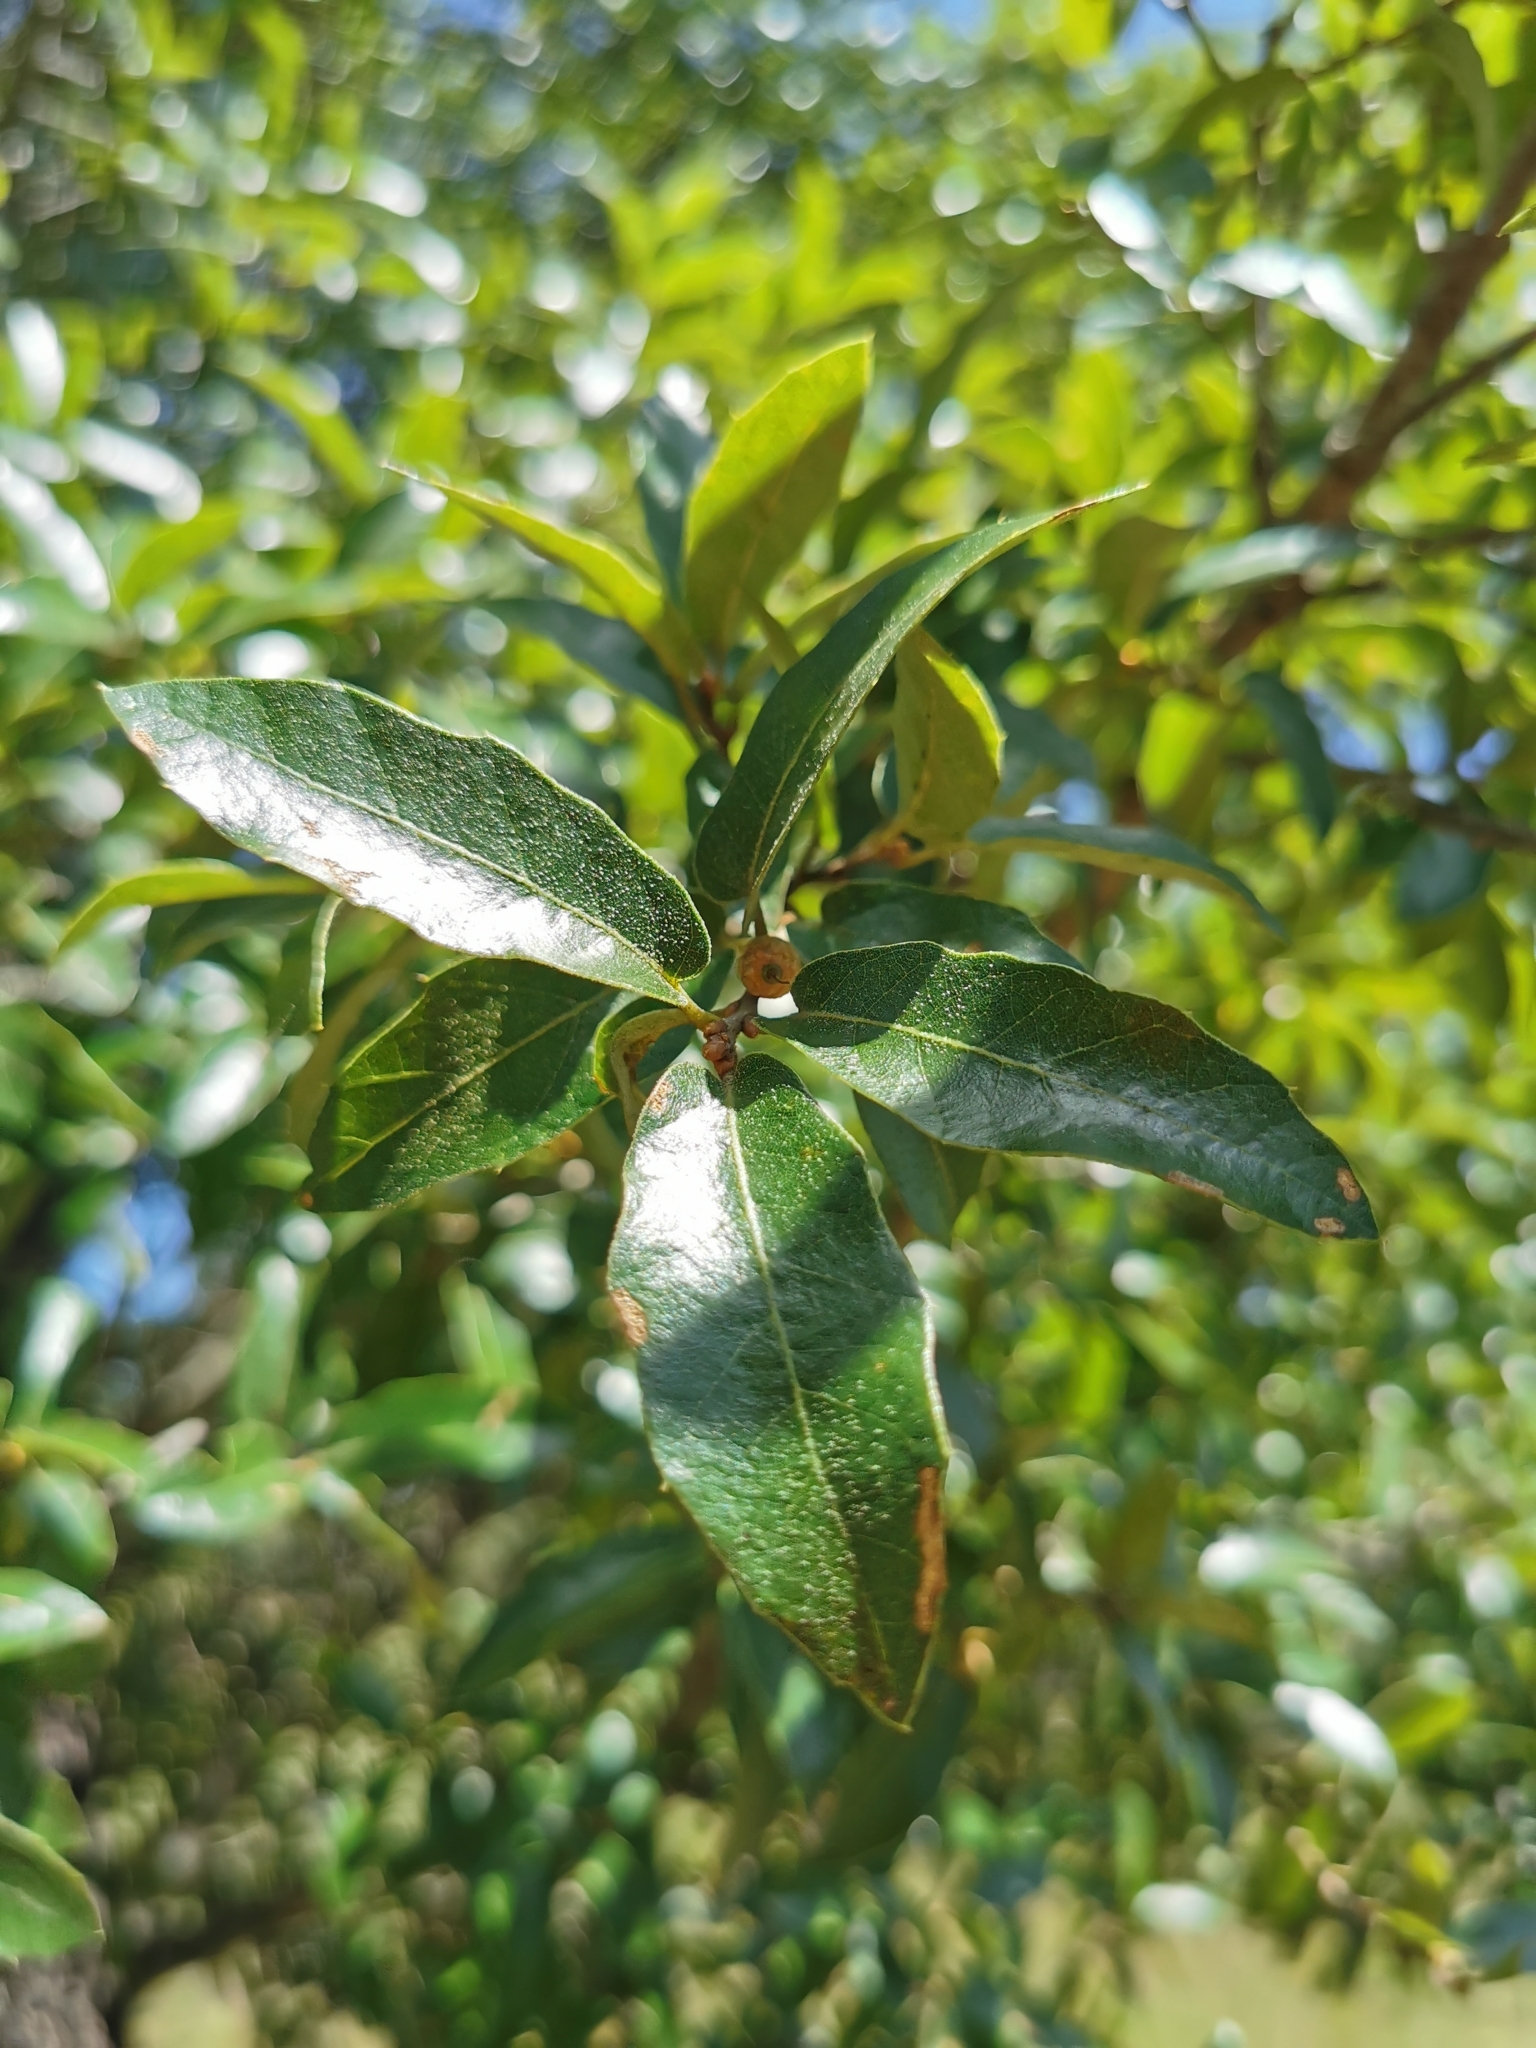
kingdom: Plantae
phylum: Tracheophyta
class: Magnoliopsida
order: Fagales
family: Fagaceae
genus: Quercus
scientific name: Quercus eduardi
